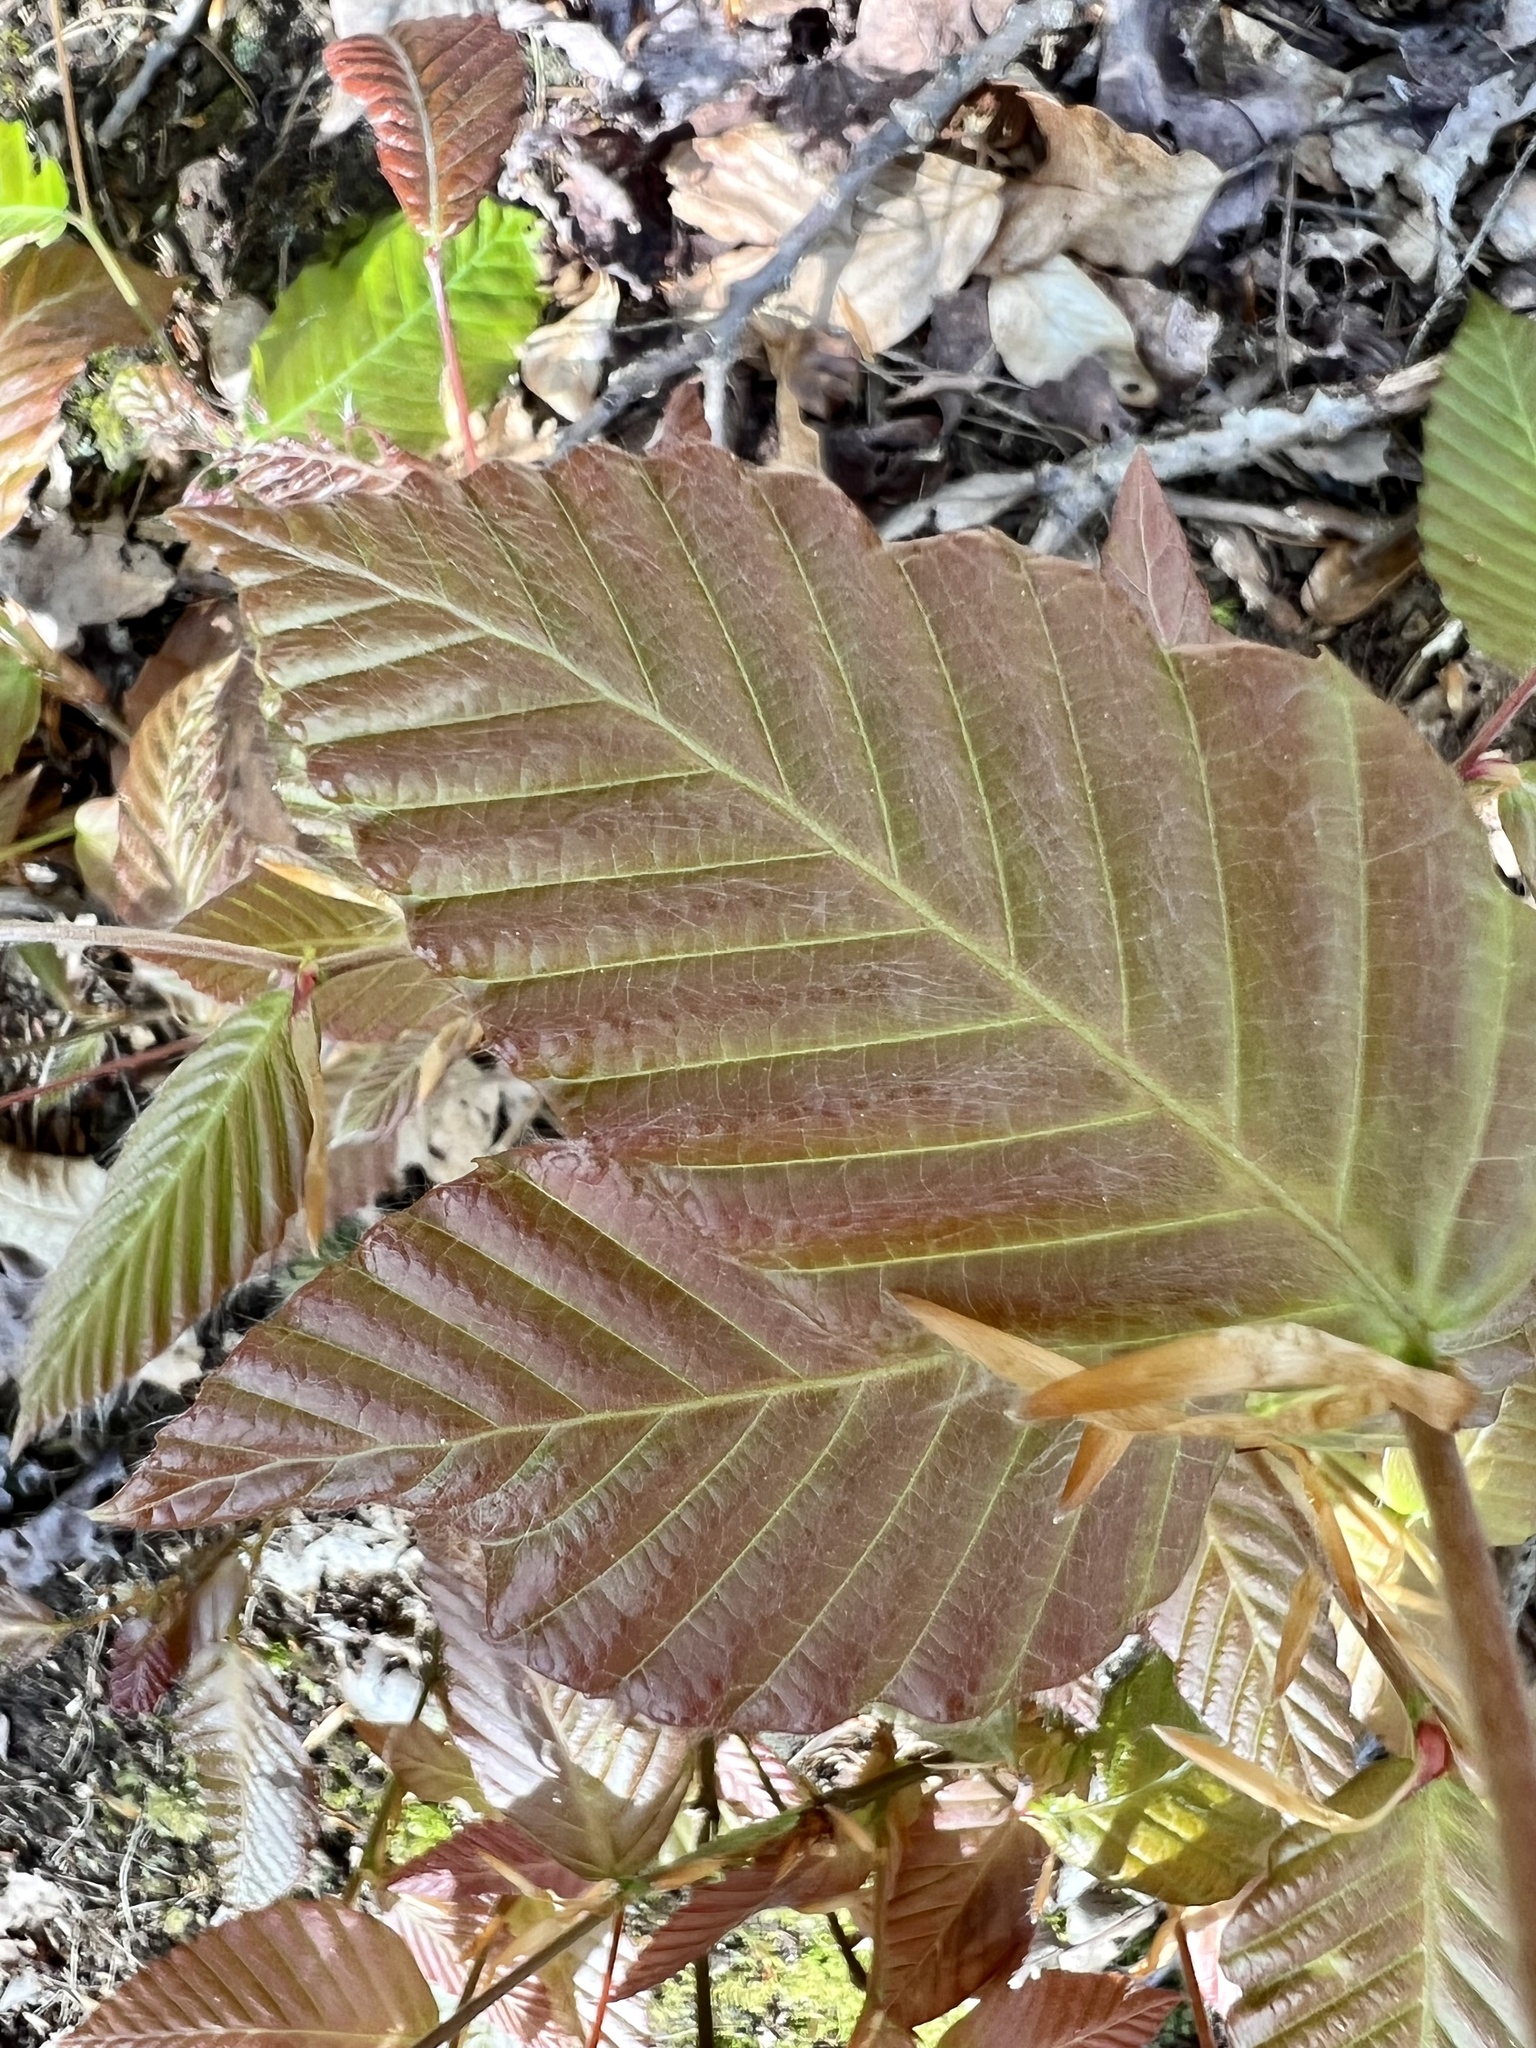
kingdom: Plantae
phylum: Tracheophyta
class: Magnoliopsida
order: Fagales
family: Fagaceae
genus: Fagus
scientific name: Fagus grandifolia
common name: American beech
